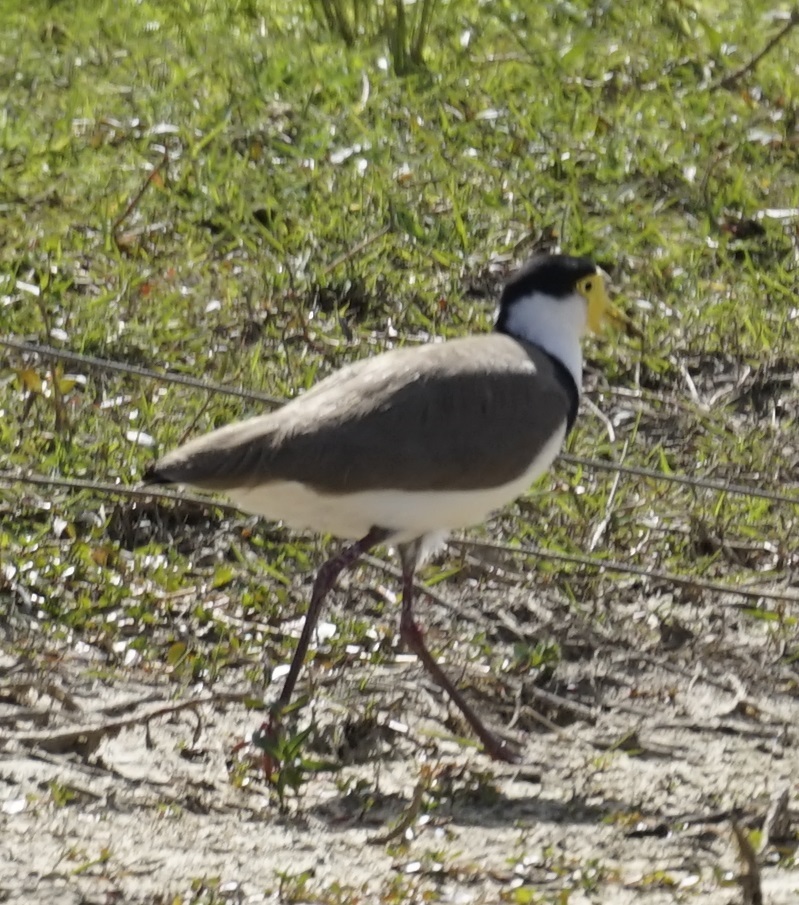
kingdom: Animalia
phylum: Chordata
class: Aves
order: Charadriiformes
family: Charadriidae
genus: Vanellus
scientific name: Vanellus miles
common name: Masked lapwing
